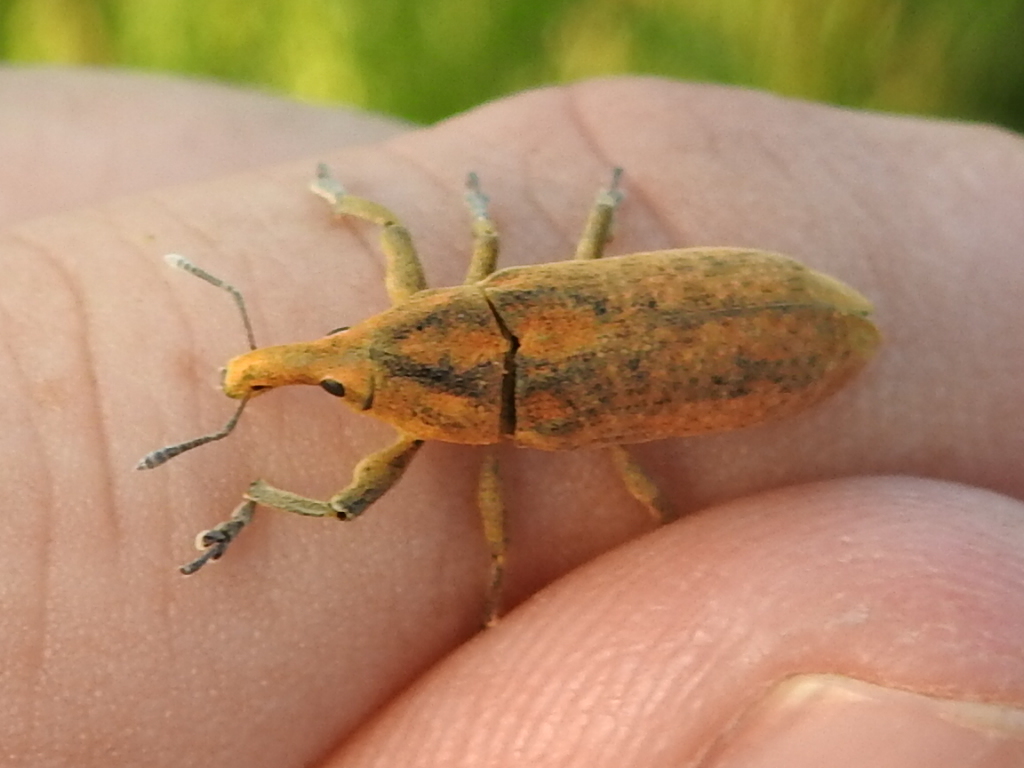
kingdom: Animalia
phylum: Arthropoda
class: Insecta
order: Coleoptera
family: Curculionidae
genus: Lixus
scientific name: Lixus concavus
